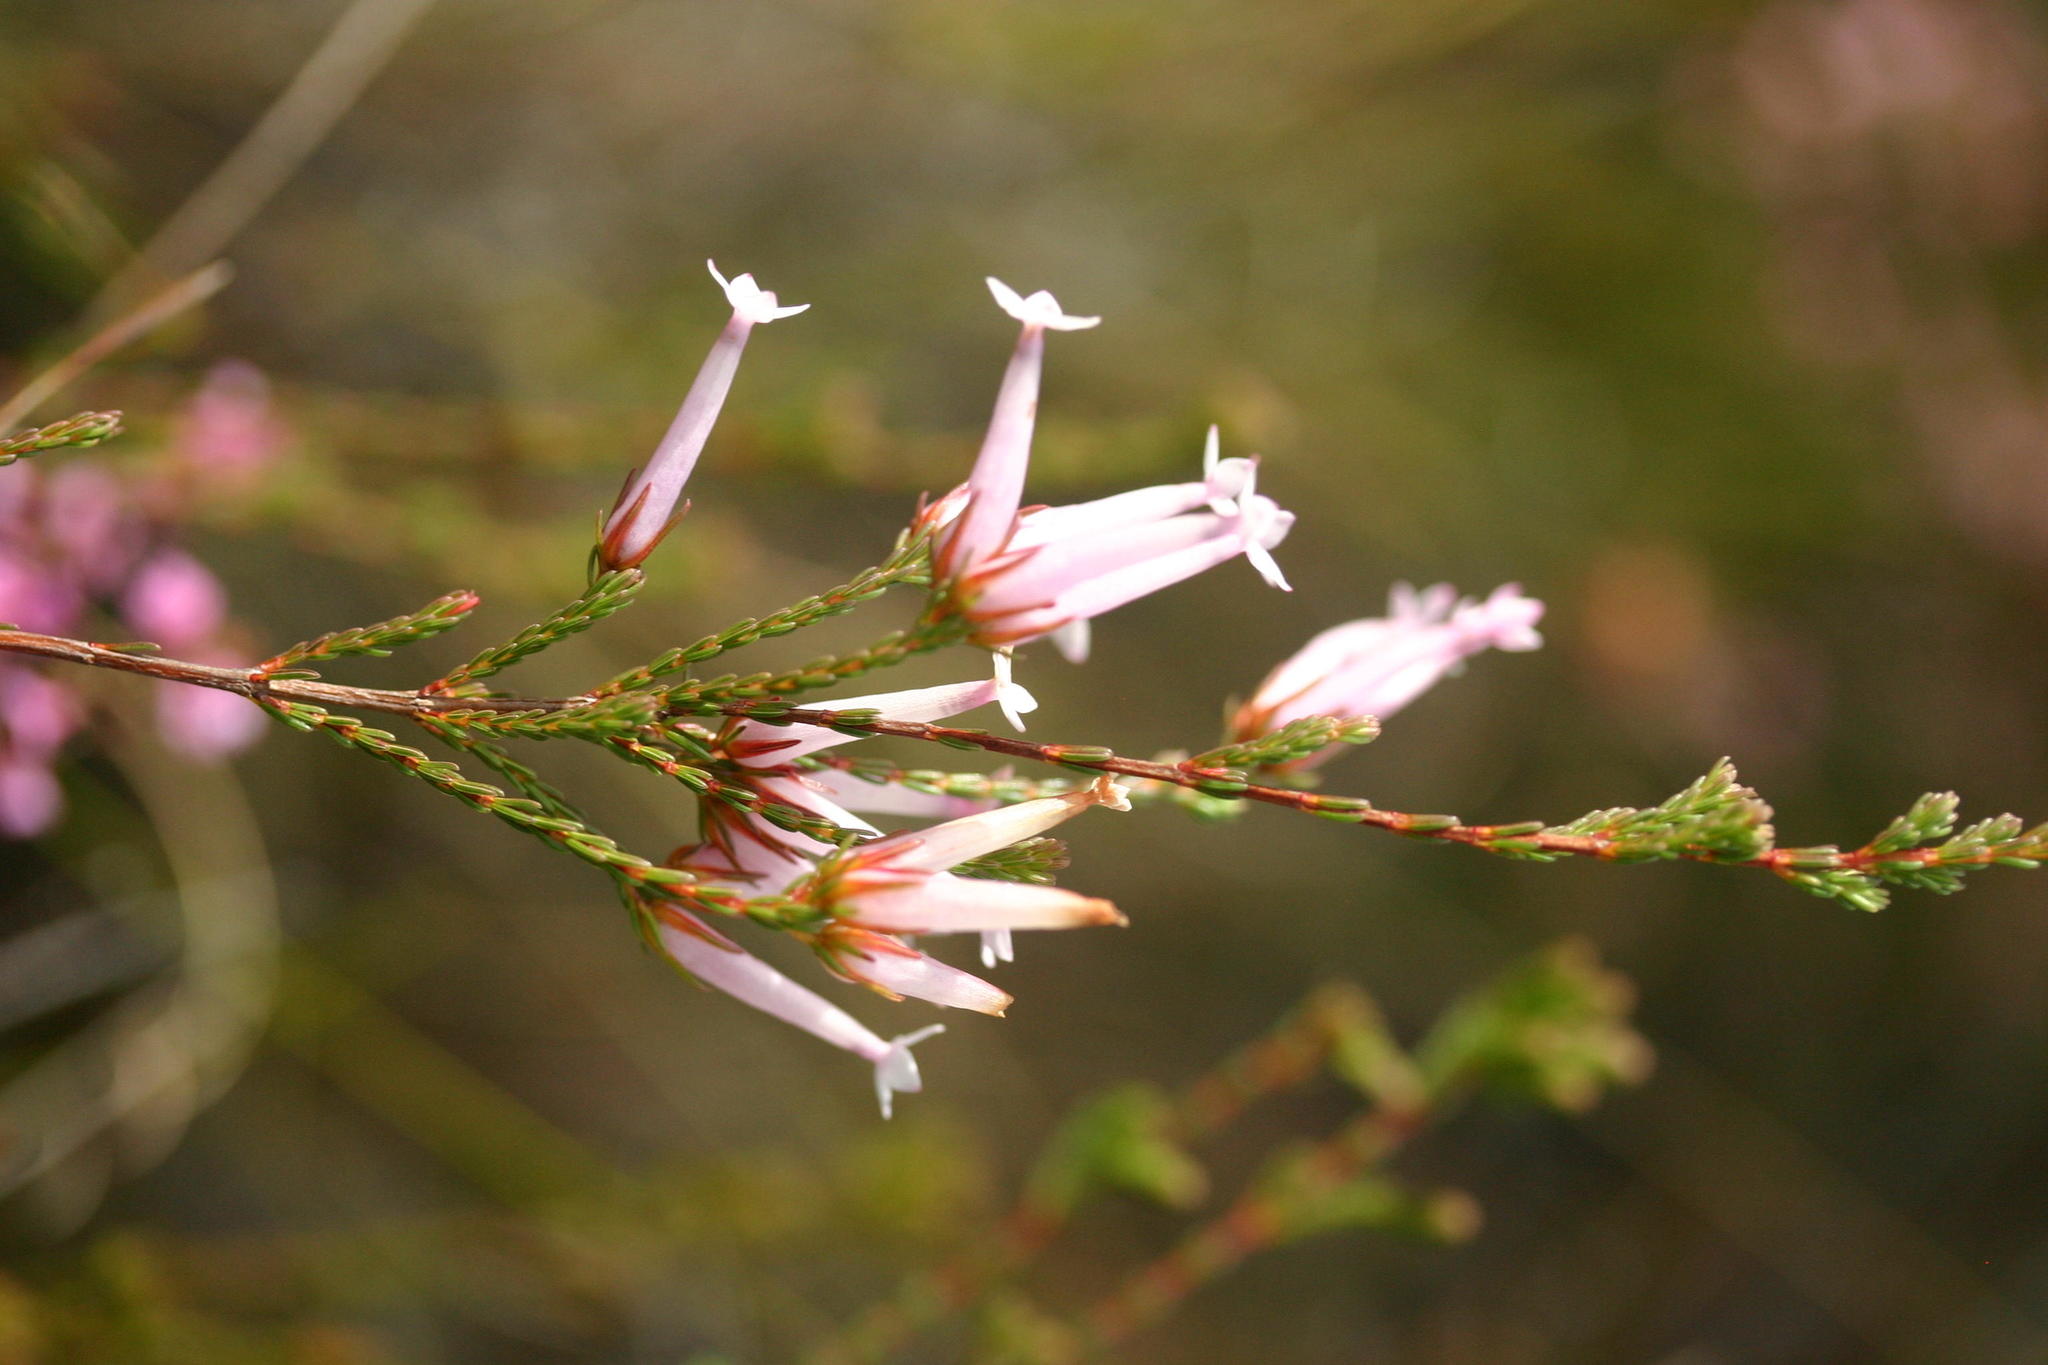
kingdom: Plantae
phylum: Tracheophyta
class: Magnoliopsida
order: Ericales
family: Ericaceae
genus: Erica
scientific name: Erica infundibuliformis
